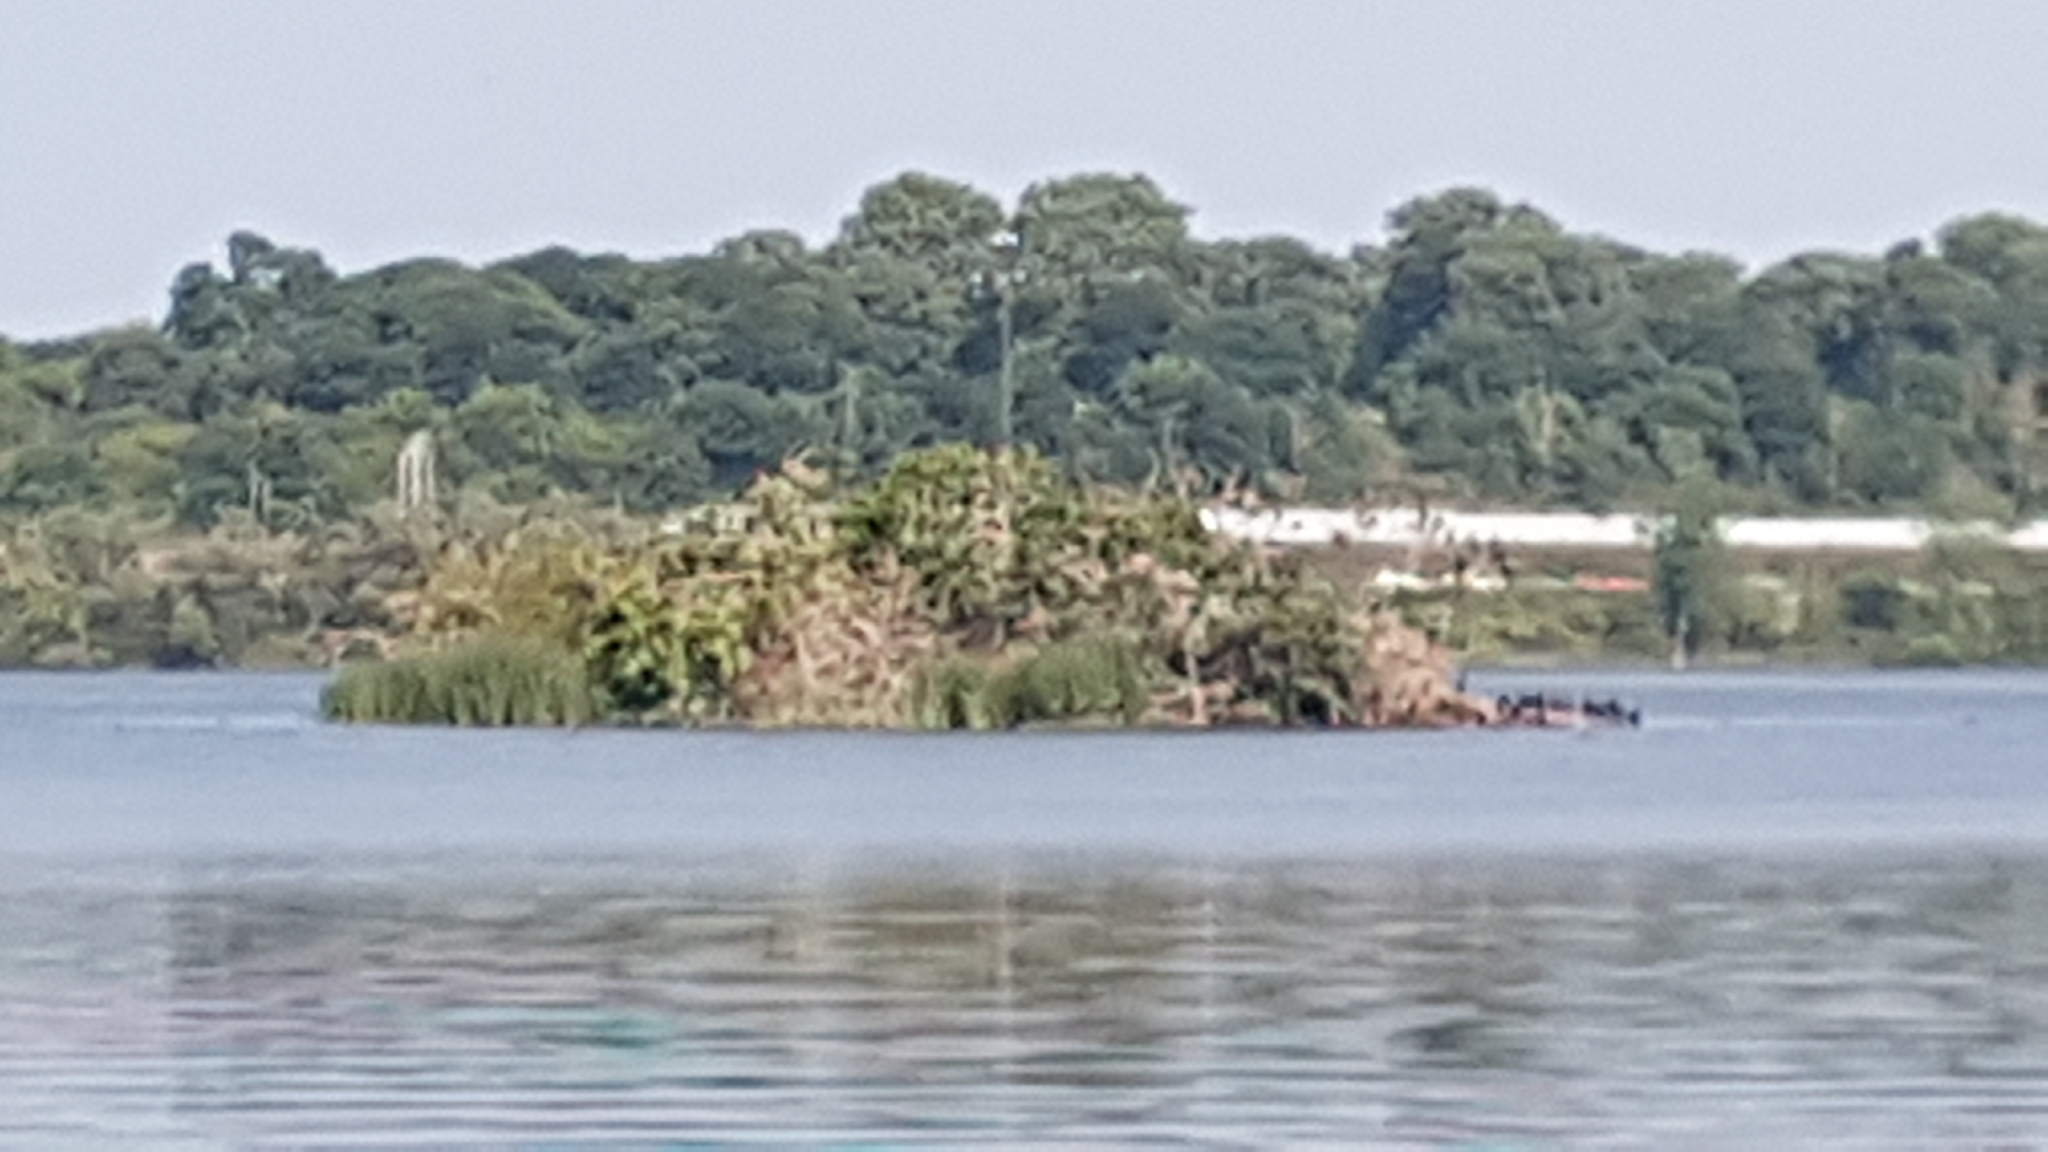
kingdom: Animalia
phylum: Chordata
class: Aves
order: Suliformes
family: Phalacrocoracidae
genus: Phalacrocorax
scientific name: Phalacrocorax auritus
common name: Double-crested cormorant
